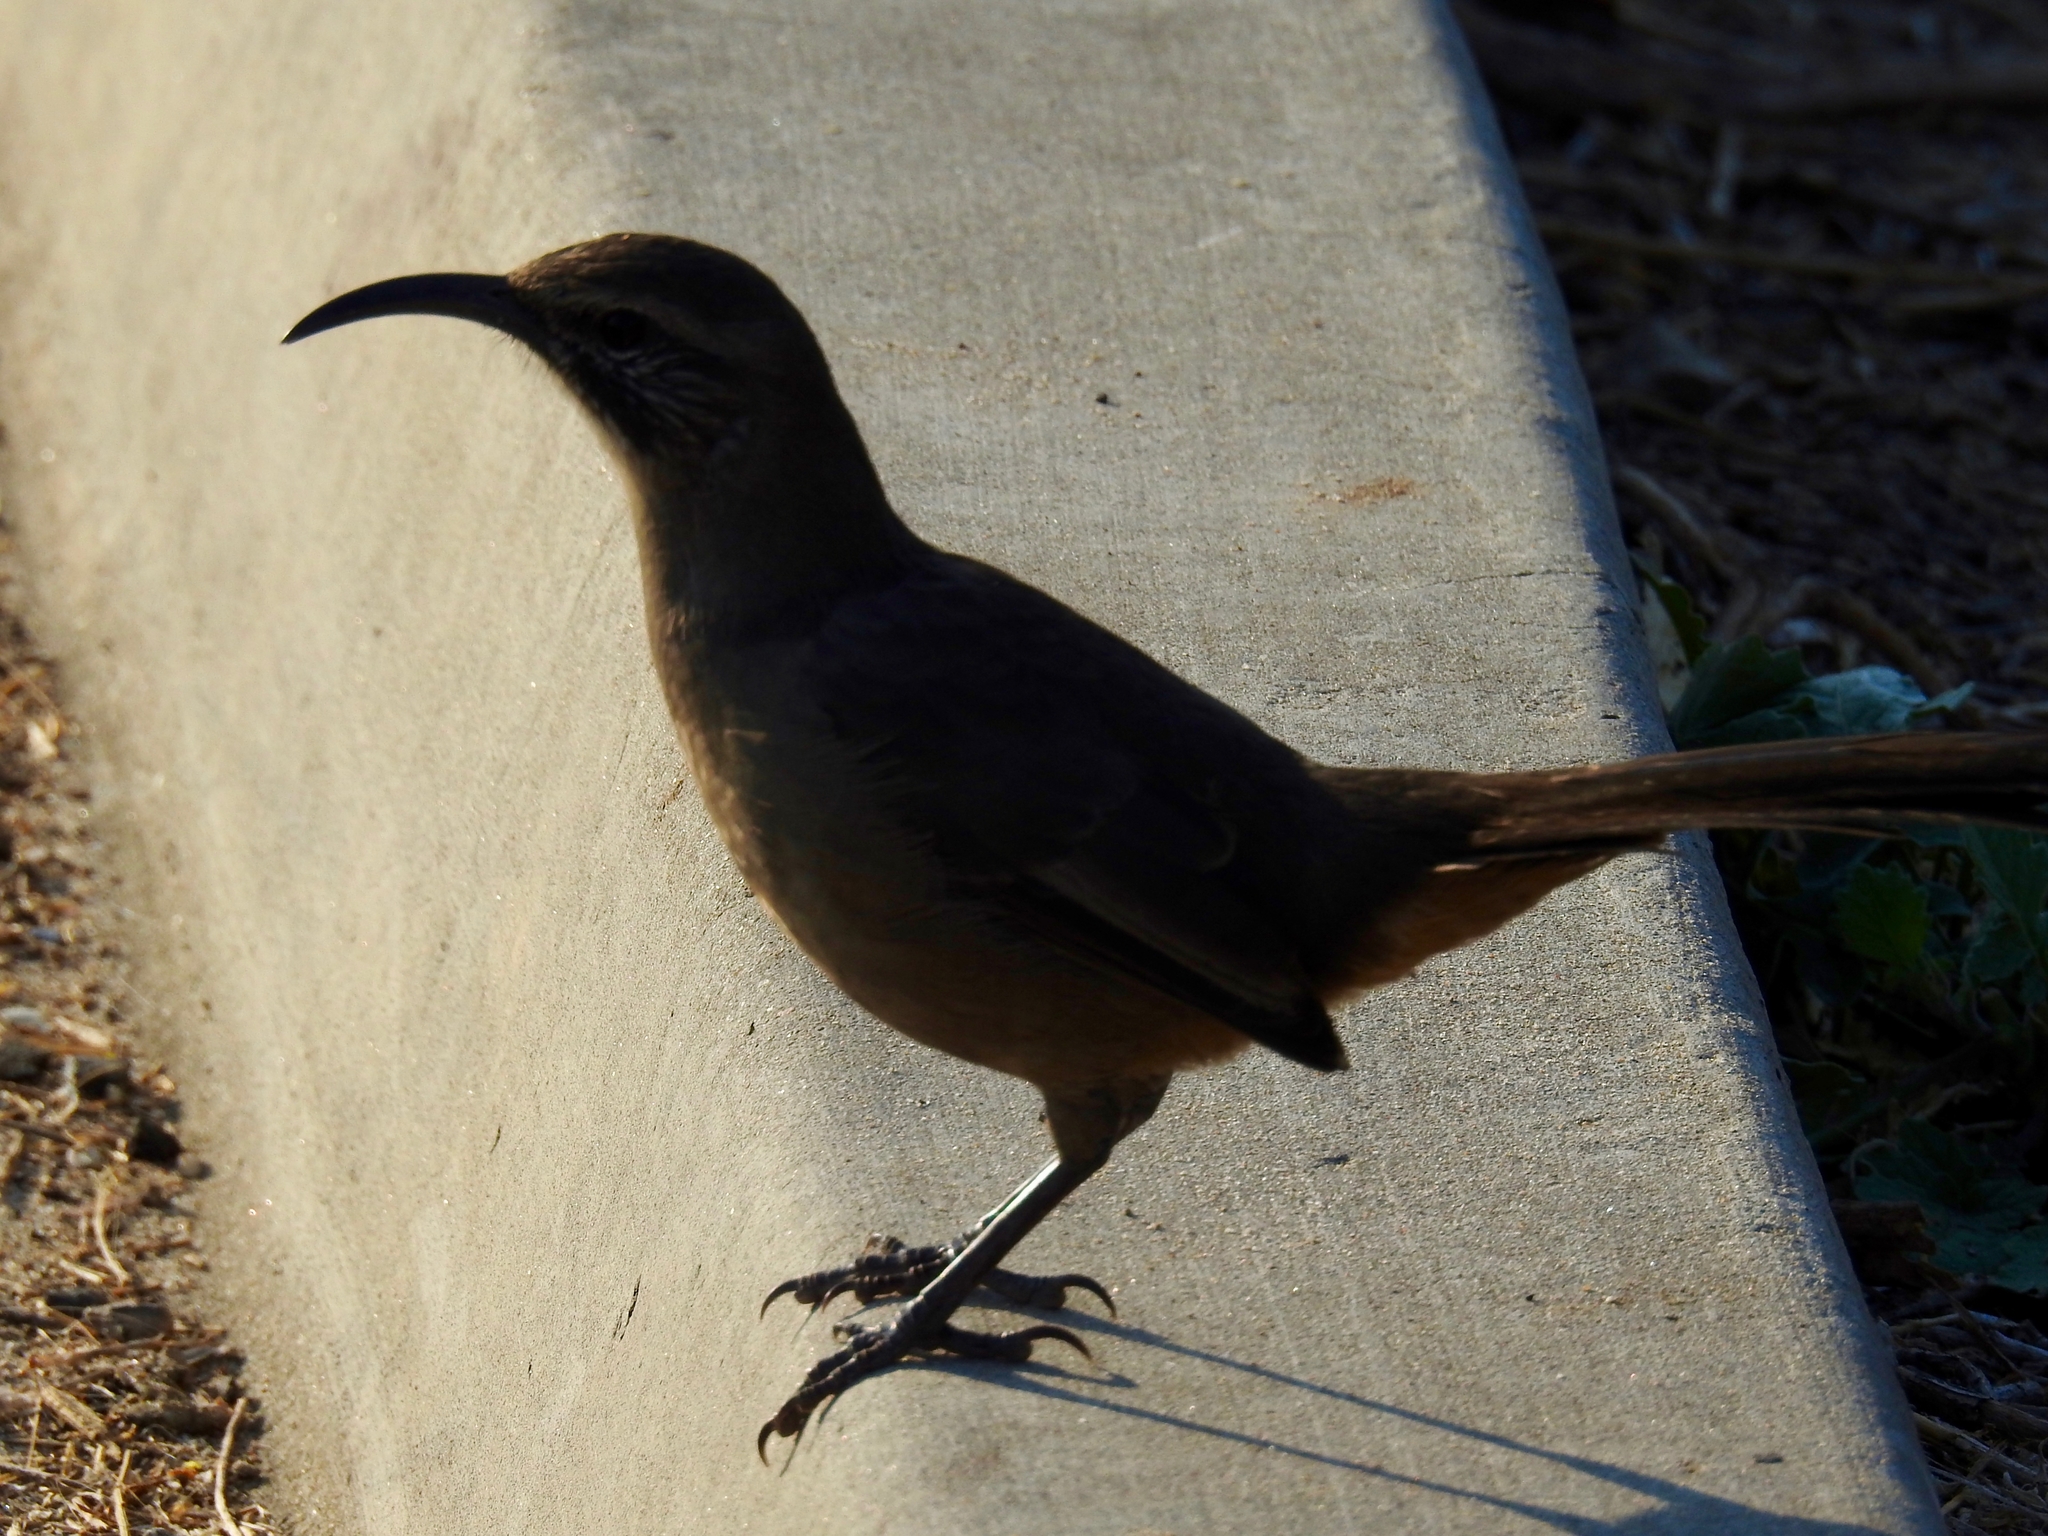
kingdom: Animalia
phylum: Chordata
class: Aves
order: Passeriformes
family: Mimidae
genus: Toxostoma
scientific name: Toxostoma redivivum
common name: California thrasher
